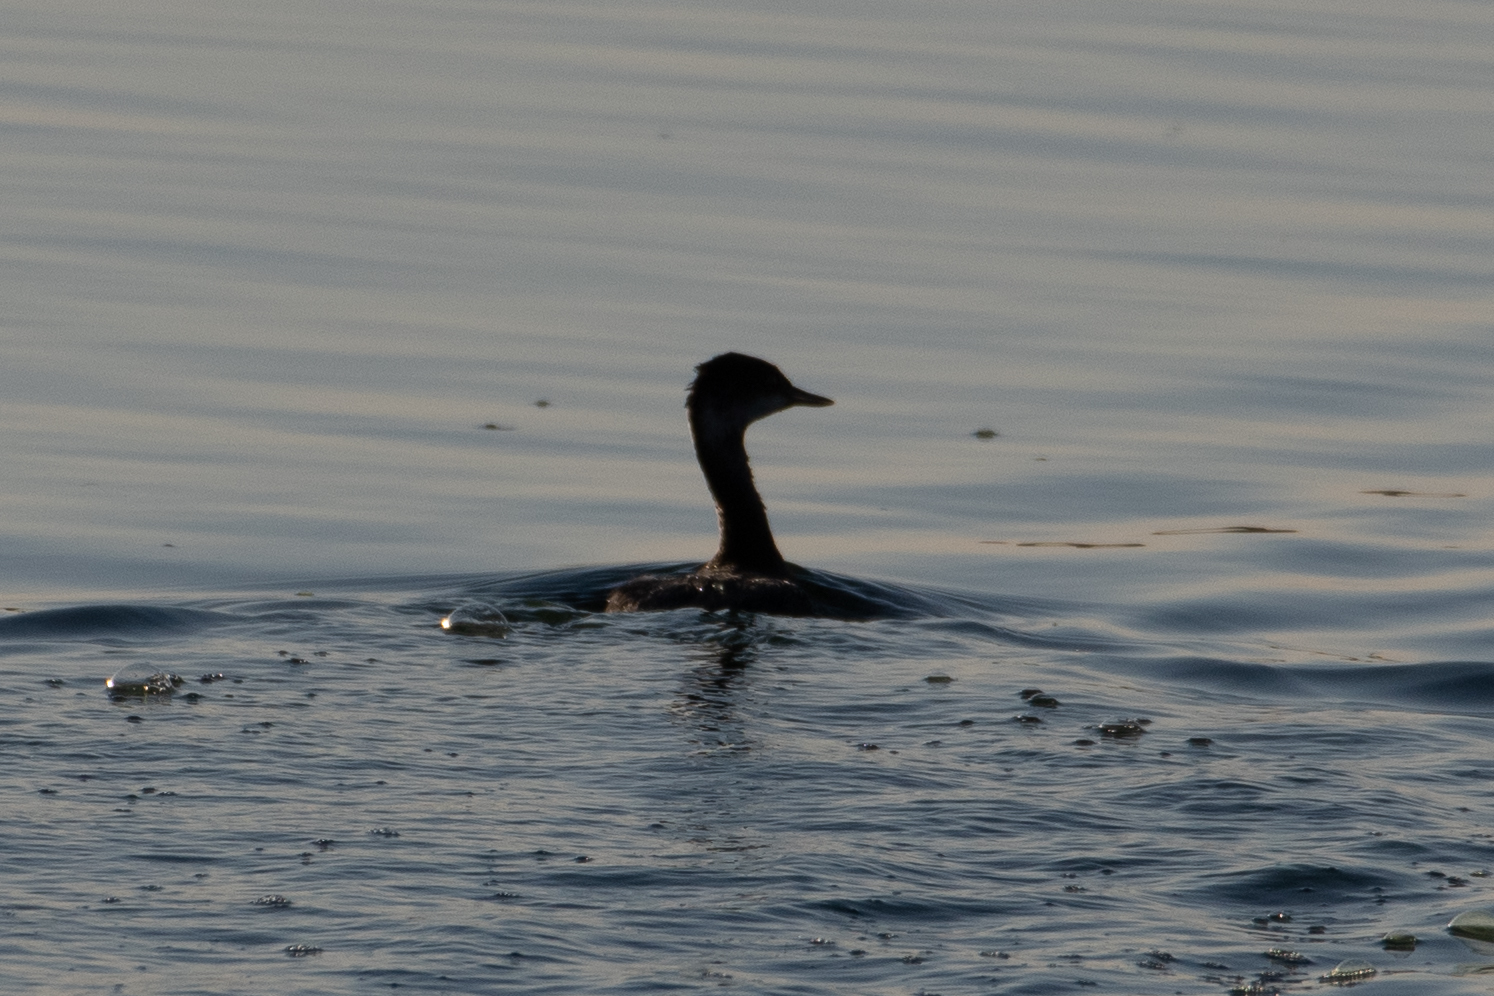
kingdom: Animalia
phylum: Chordata
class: Aves
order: Podicipediformes
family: Podicipedidae
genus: Podiceps
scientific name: Podiceps nigricollis
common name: Black-necked grebe
